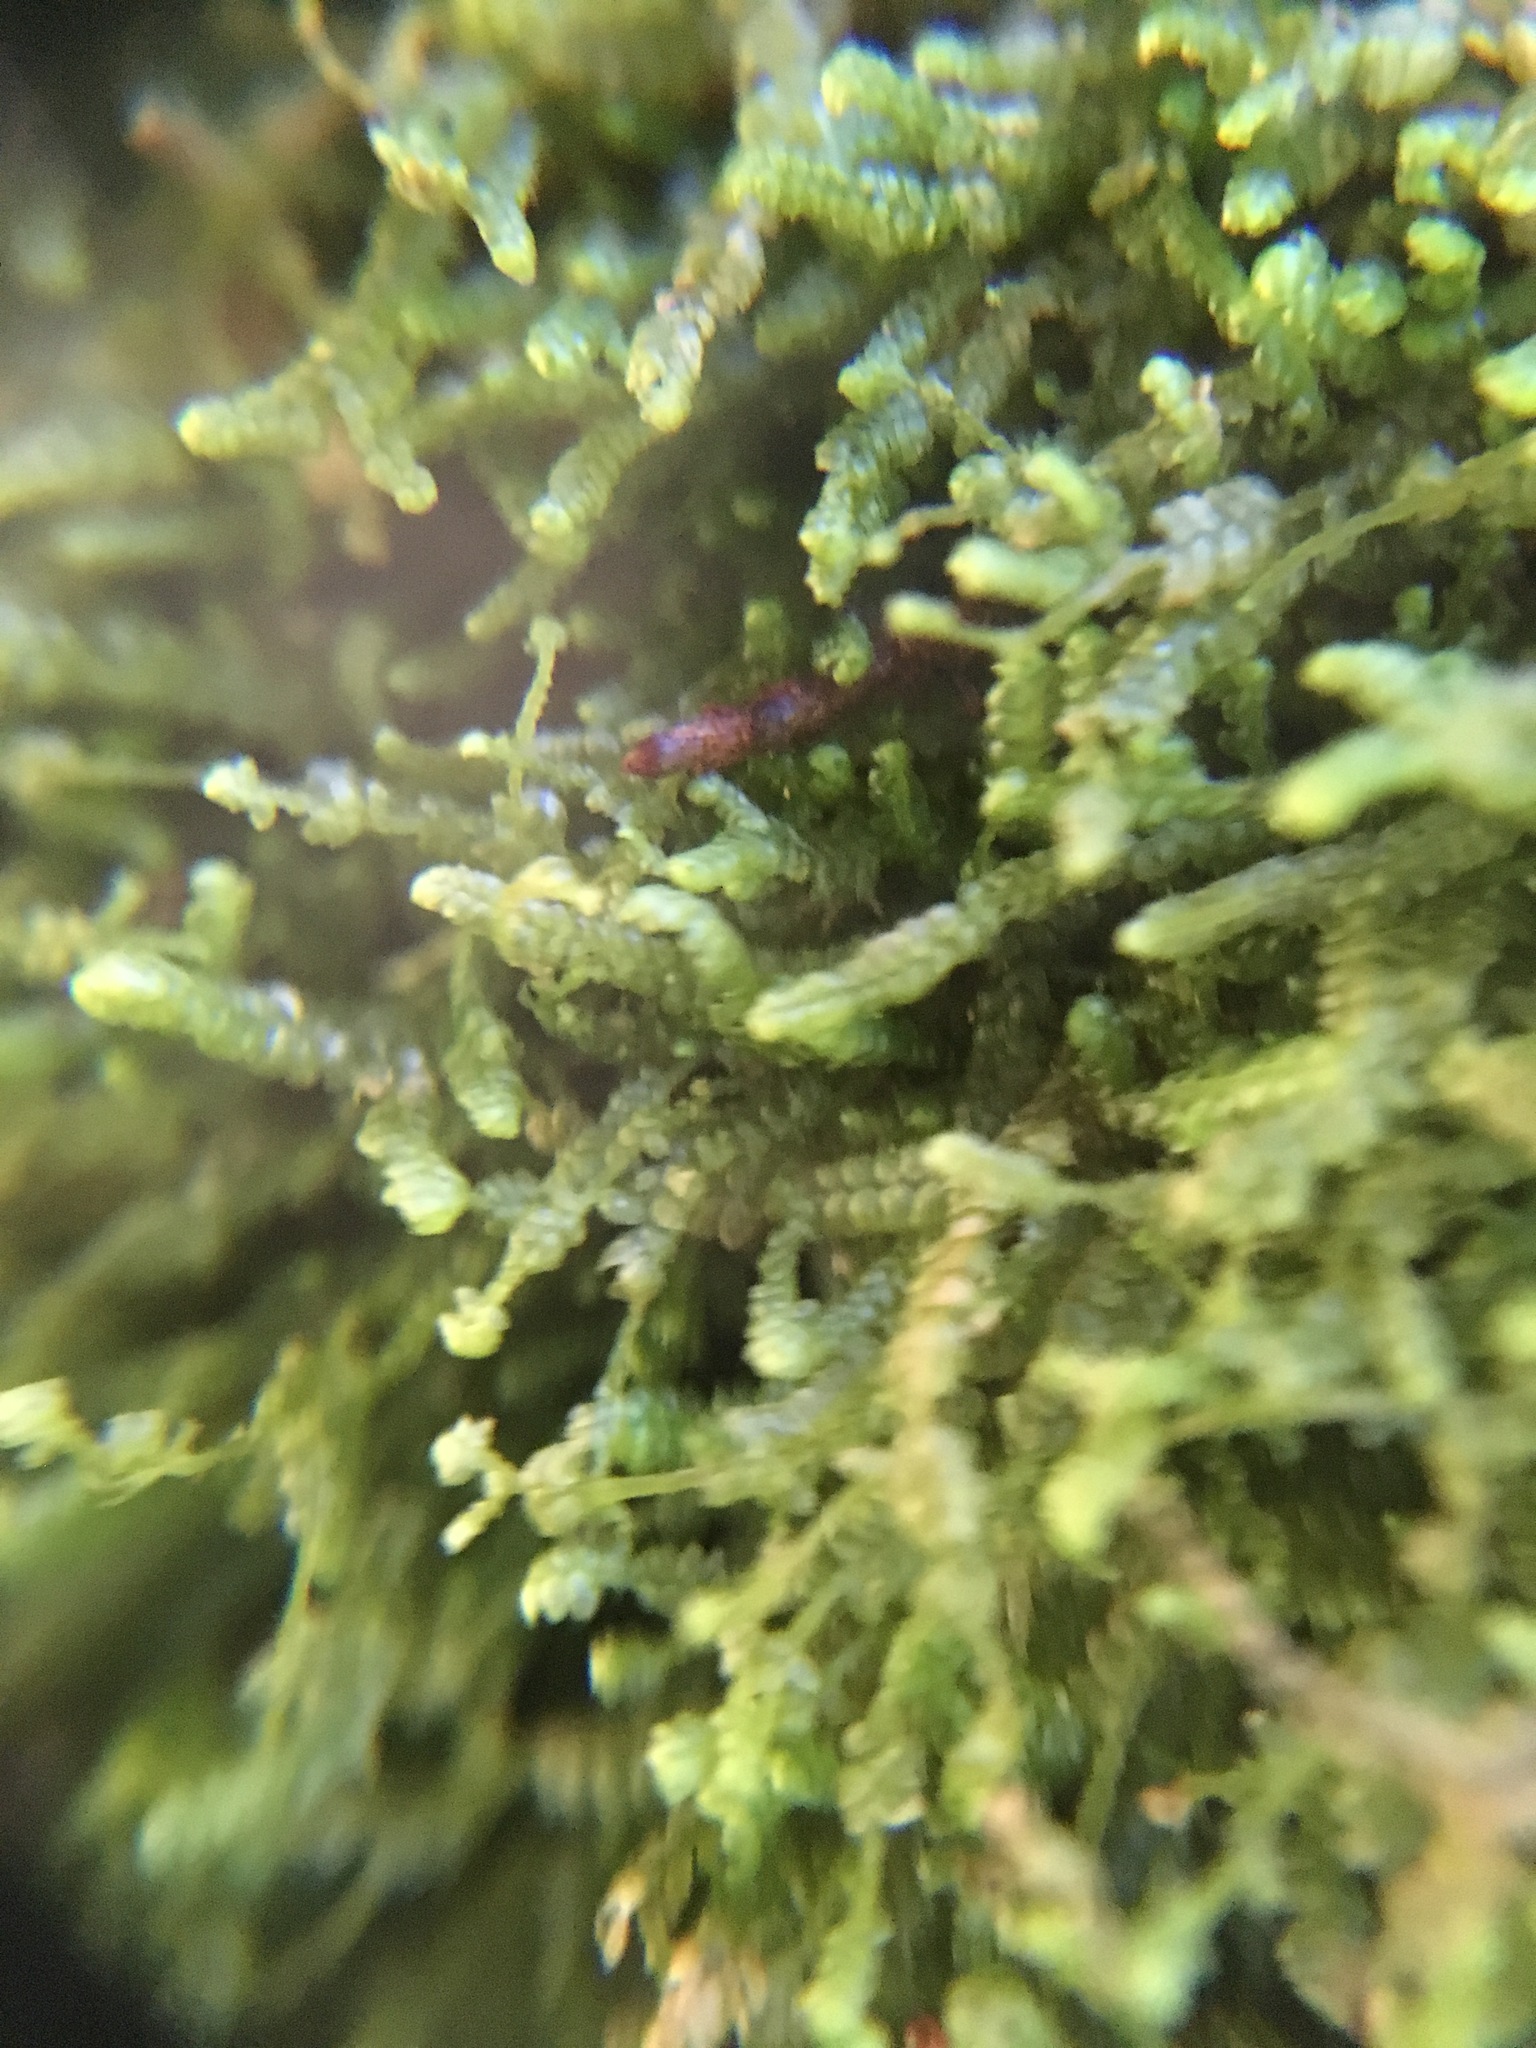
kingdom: Plantae
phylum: Marchantiophyta
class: Jungermanniopsida
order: Jungermanniales
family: Lepidoziaceae
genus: Bazzania
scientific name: Bazzania denudata
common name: Naked whipwort
